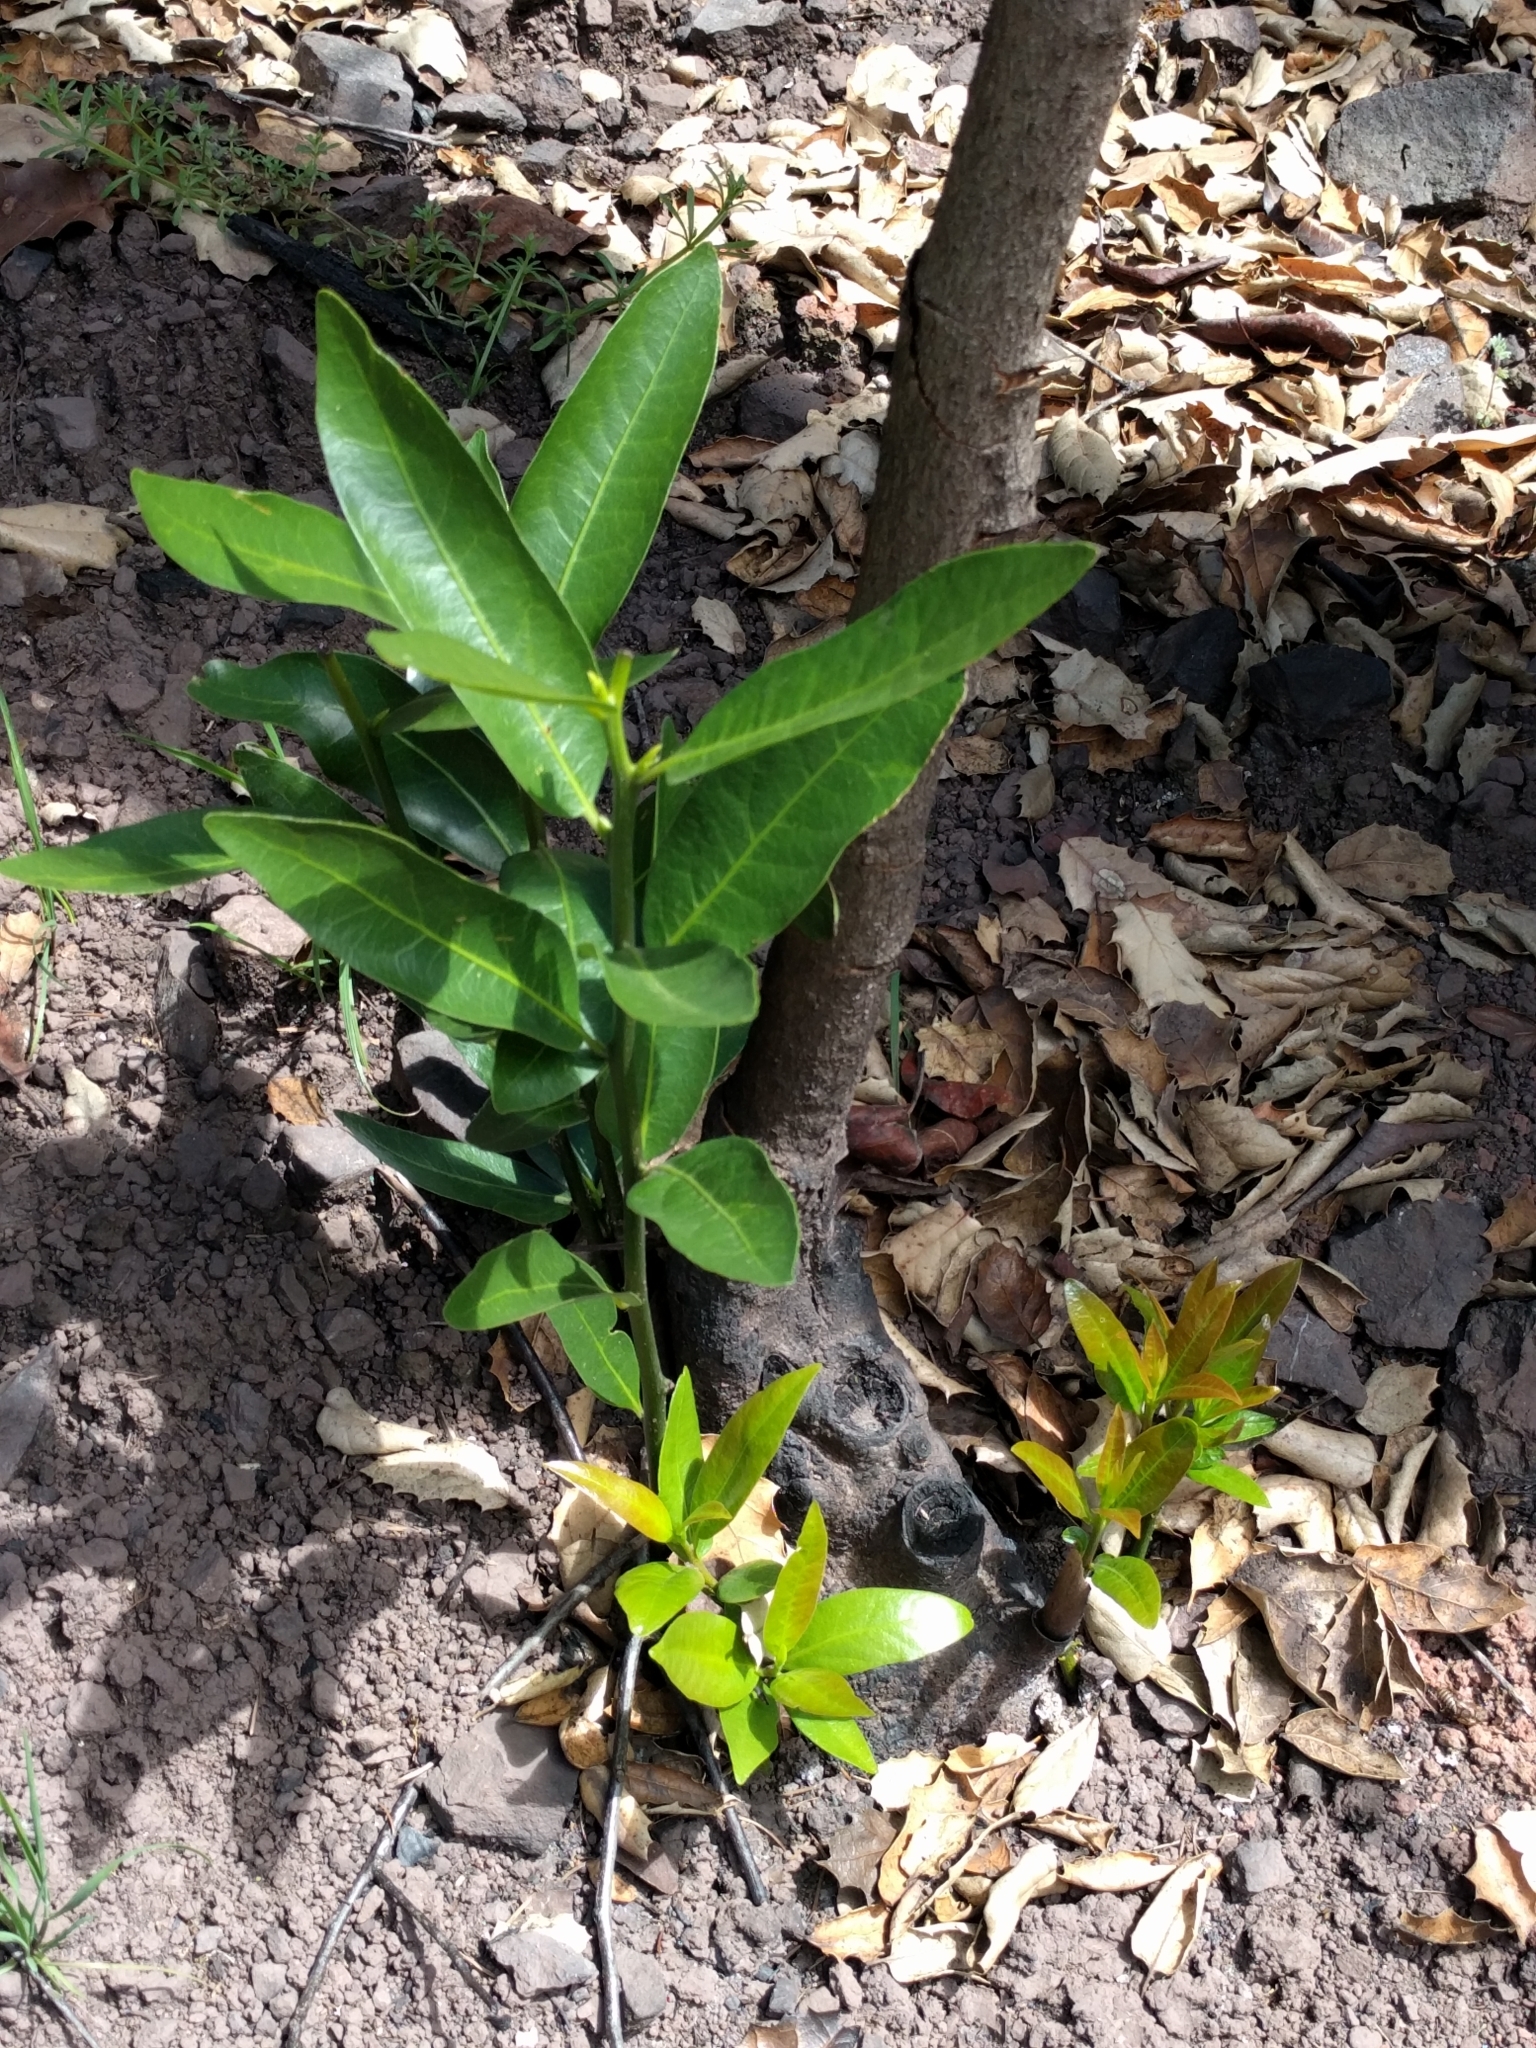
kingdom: Plantae
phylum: Tracheophyta
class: Magnoliopsida
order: Laurales
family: Lauraceae
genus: Umbellularia
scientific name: Umbellularia californica
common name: California bay
